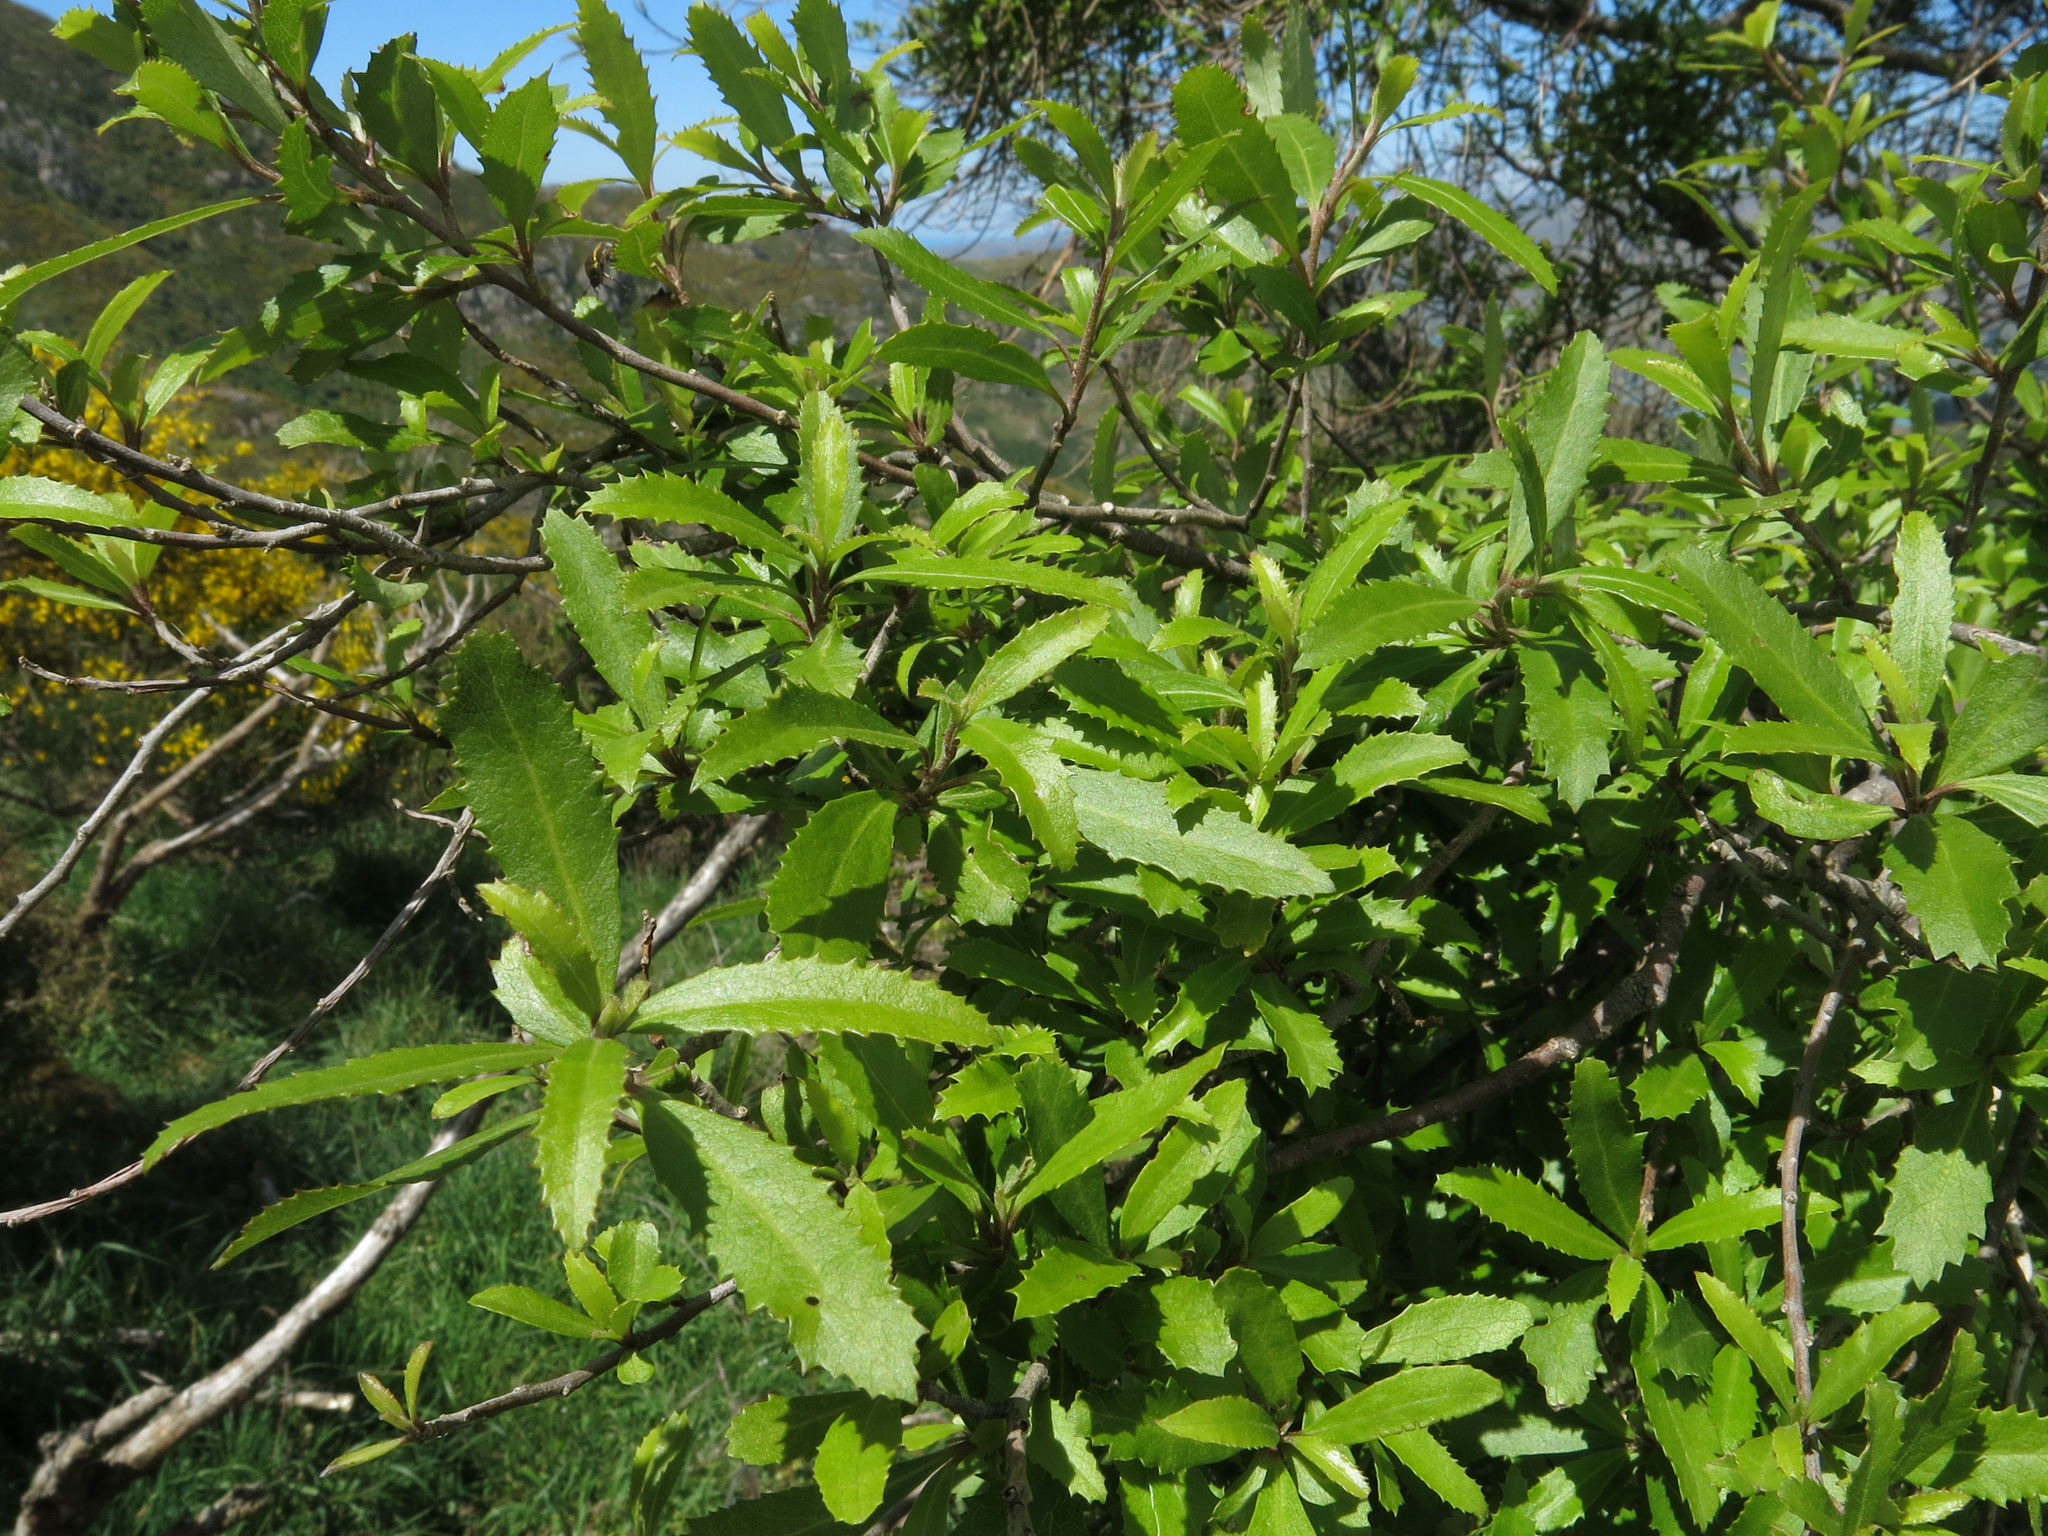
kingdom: Plantae
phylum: Tracheophyta
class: Magnoliopsida
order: Malvales
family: Malvaceae
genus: Hoheria
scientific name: Hoheria angustifolia
